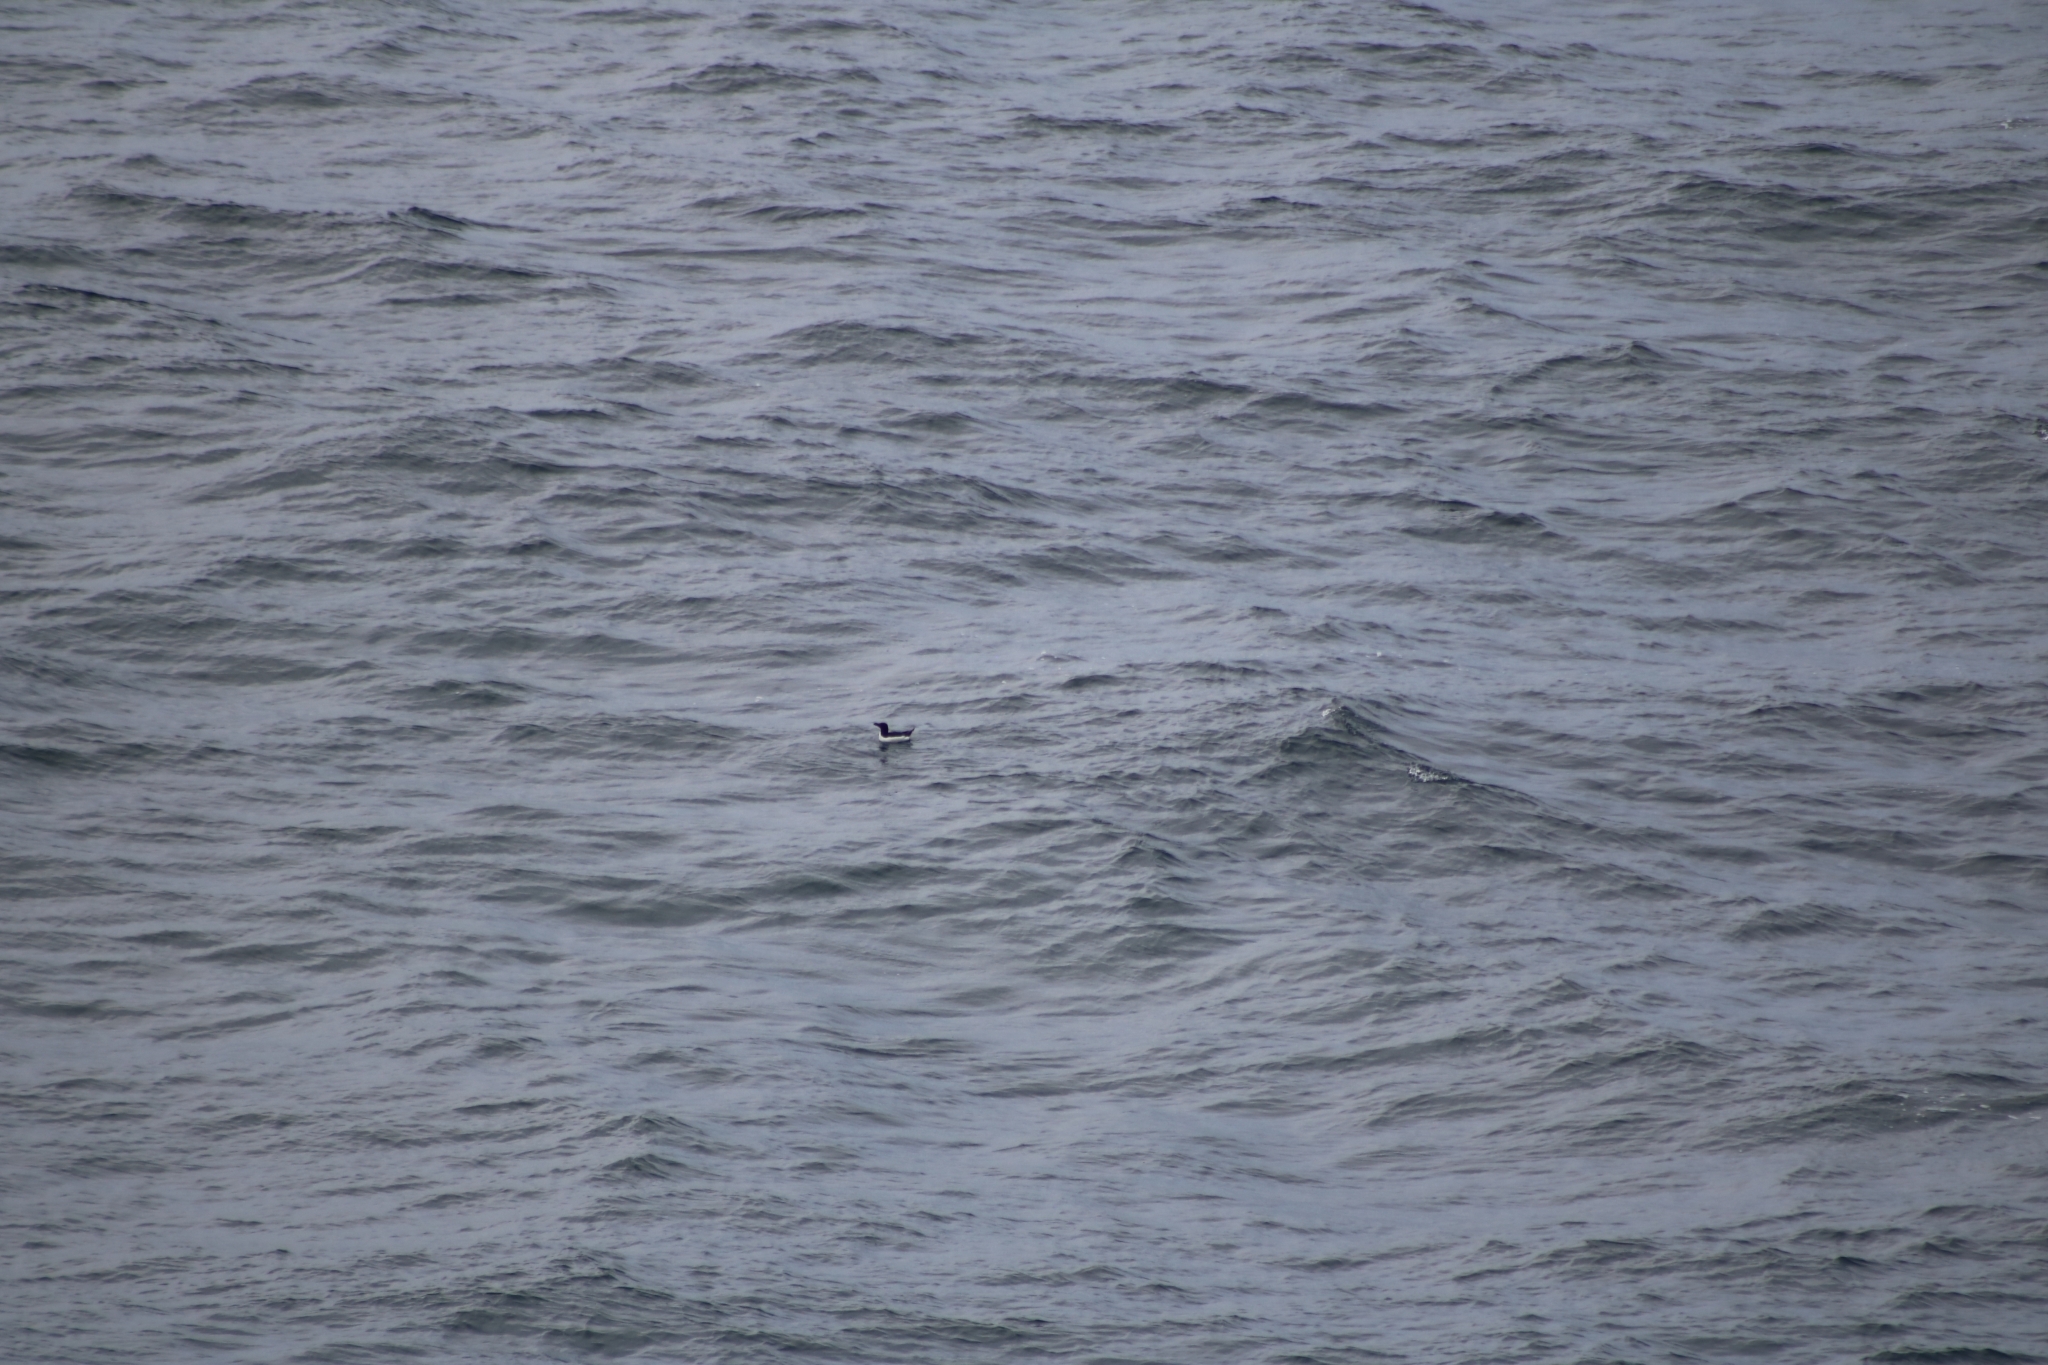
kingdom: Animalia
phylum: Chordata
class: Aves
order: Charadriiformes
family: Alcidae
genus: Alca
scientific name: Alca torda
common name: Razorbill
